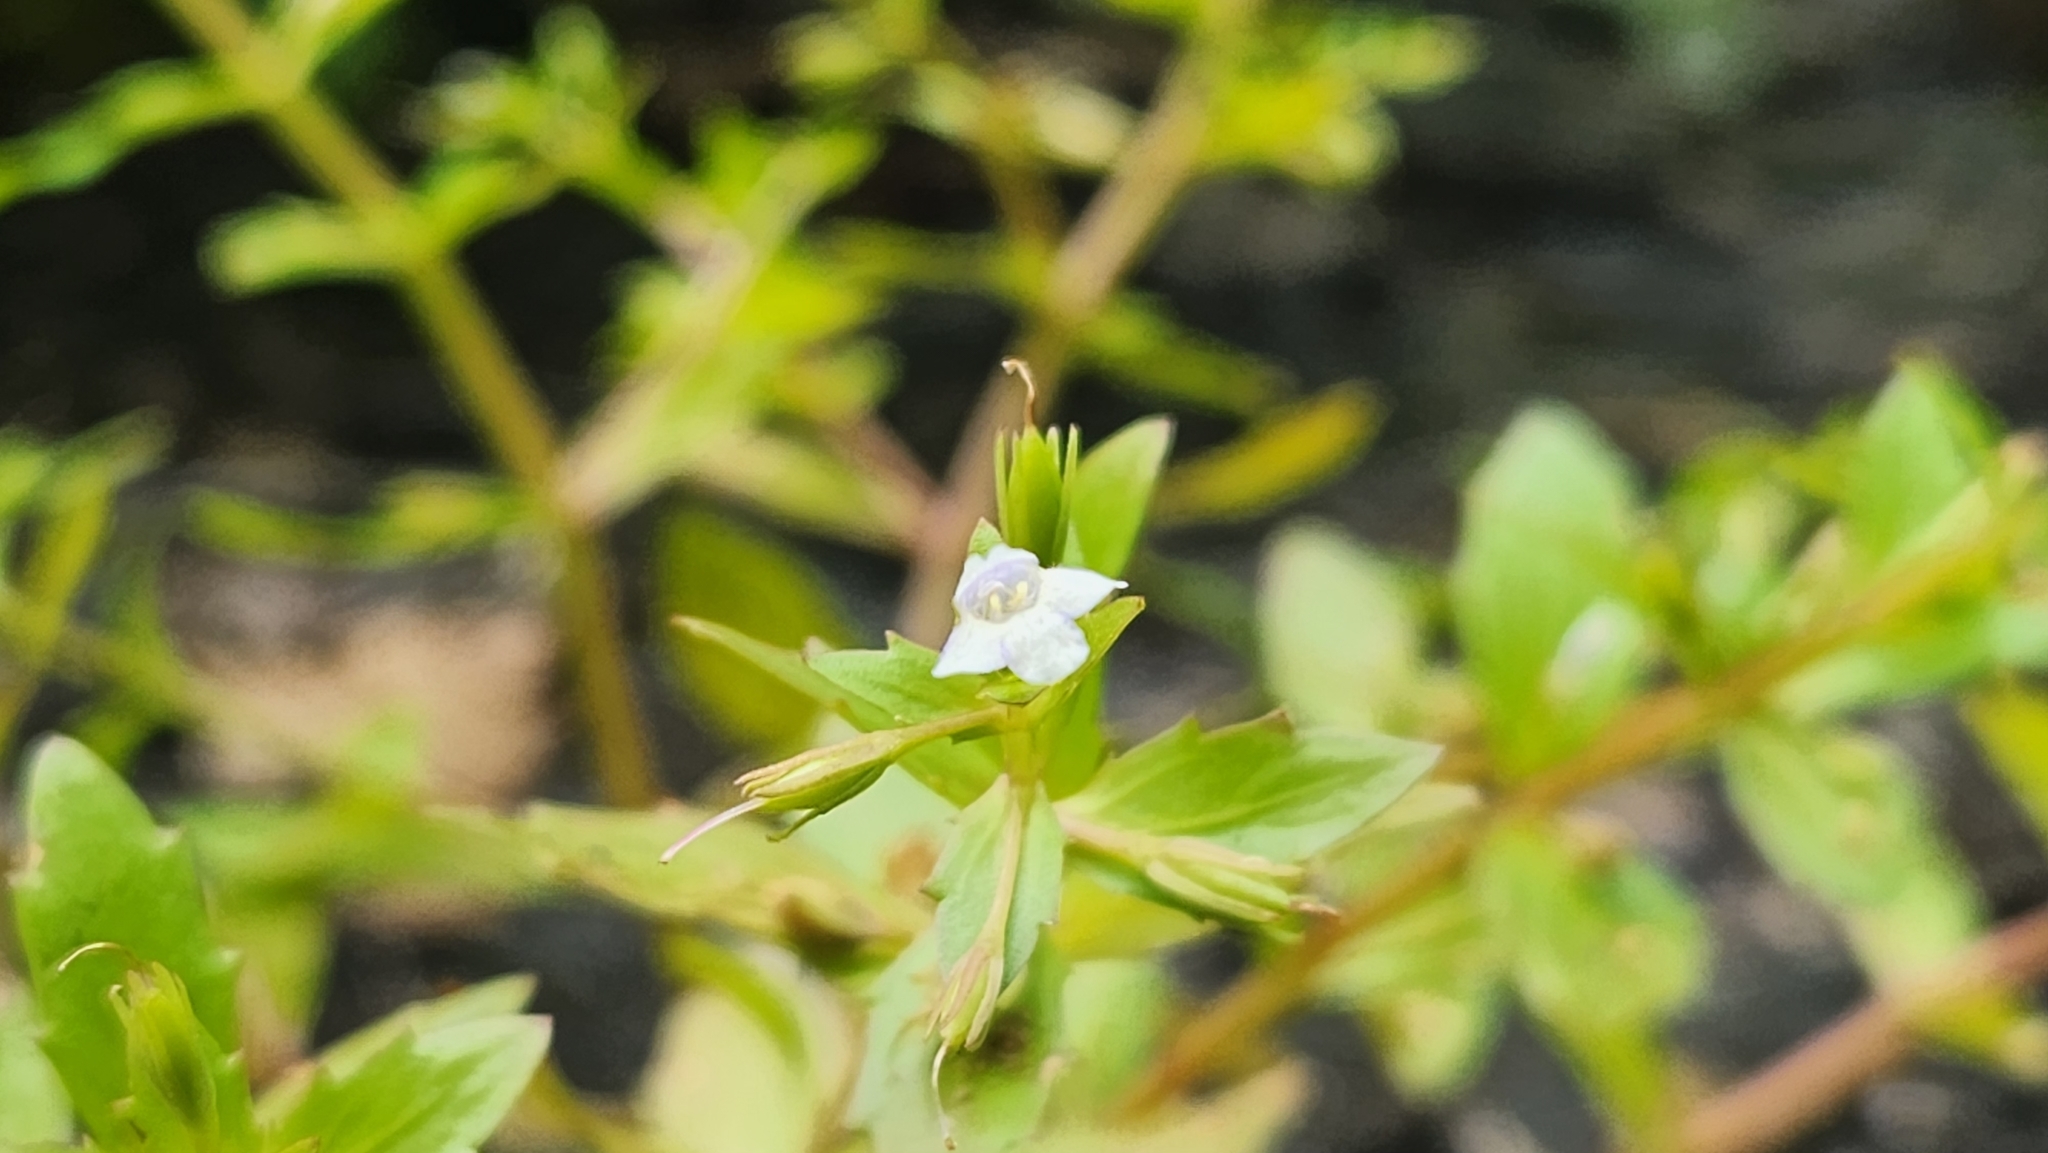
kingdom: Plantae
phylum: Tracheophyta
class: Magnoliopsida
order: Lamiales
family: Linderniaceae
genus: Lindernia
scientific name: Lindernia dubia
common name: Annual false pimpernel
